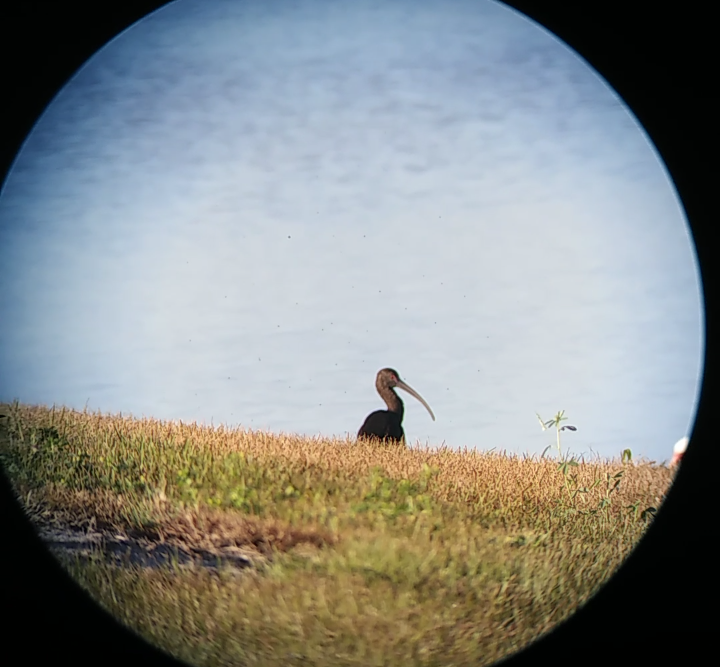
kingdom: Animalia
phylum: Chordata
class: Aves
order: Pelecaniformes
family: Threskiornithidae
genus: Plegadis
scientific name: Plegadis chihi
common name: White-faced ibis
